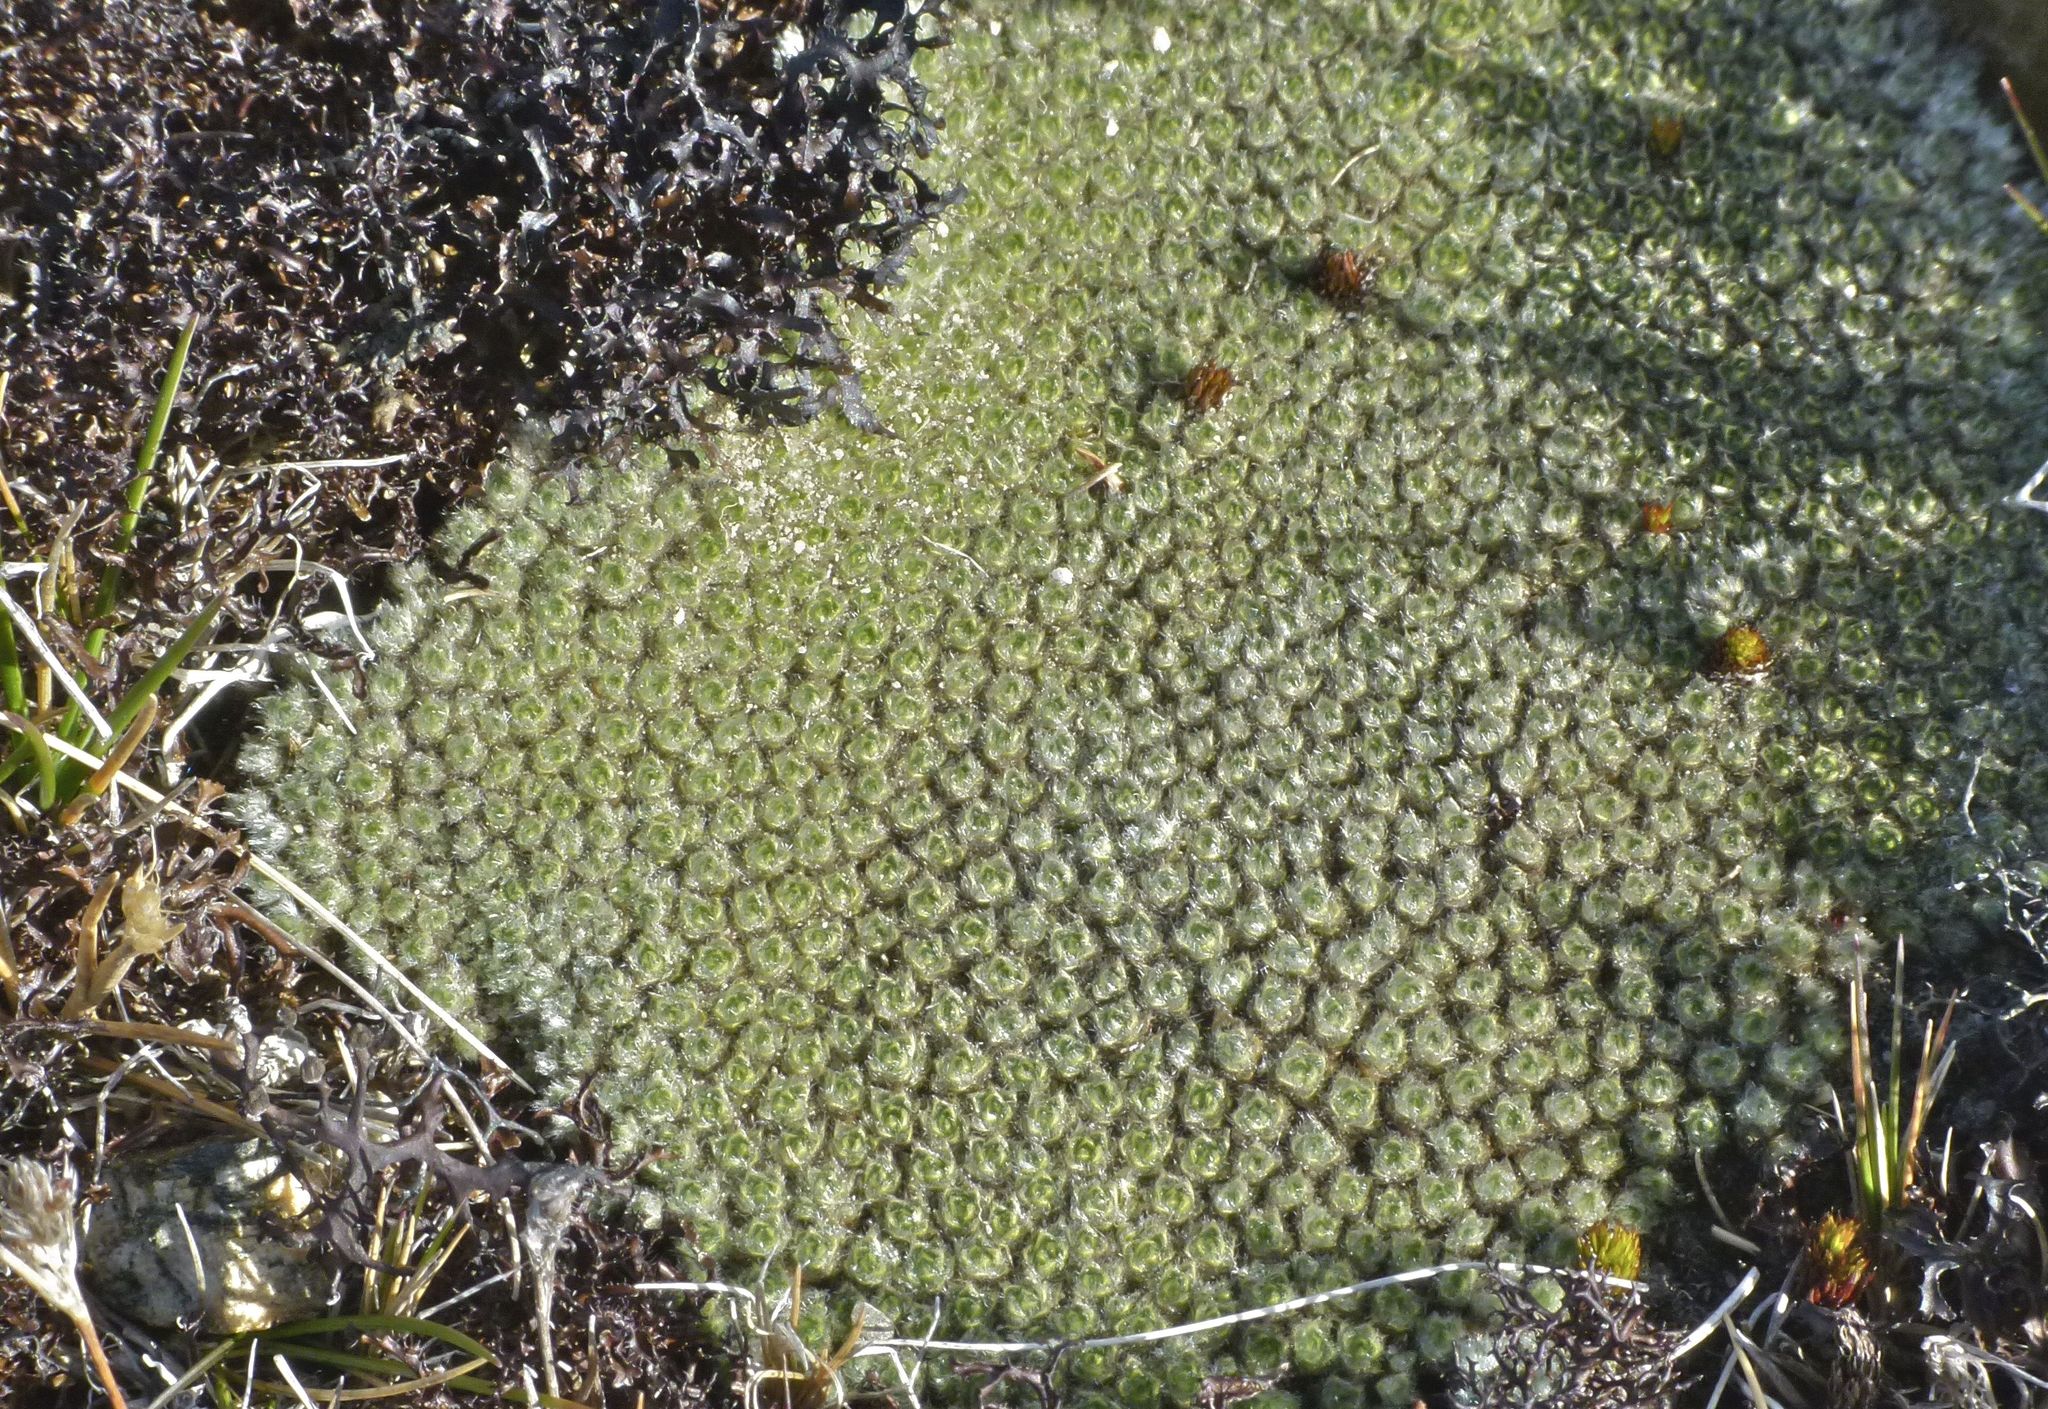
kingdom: Plantae
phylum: Tracheophyta
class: Magnoliopsida
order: Asterales
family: Asteraceae
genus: Raoulia
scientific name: Raoulia australis
